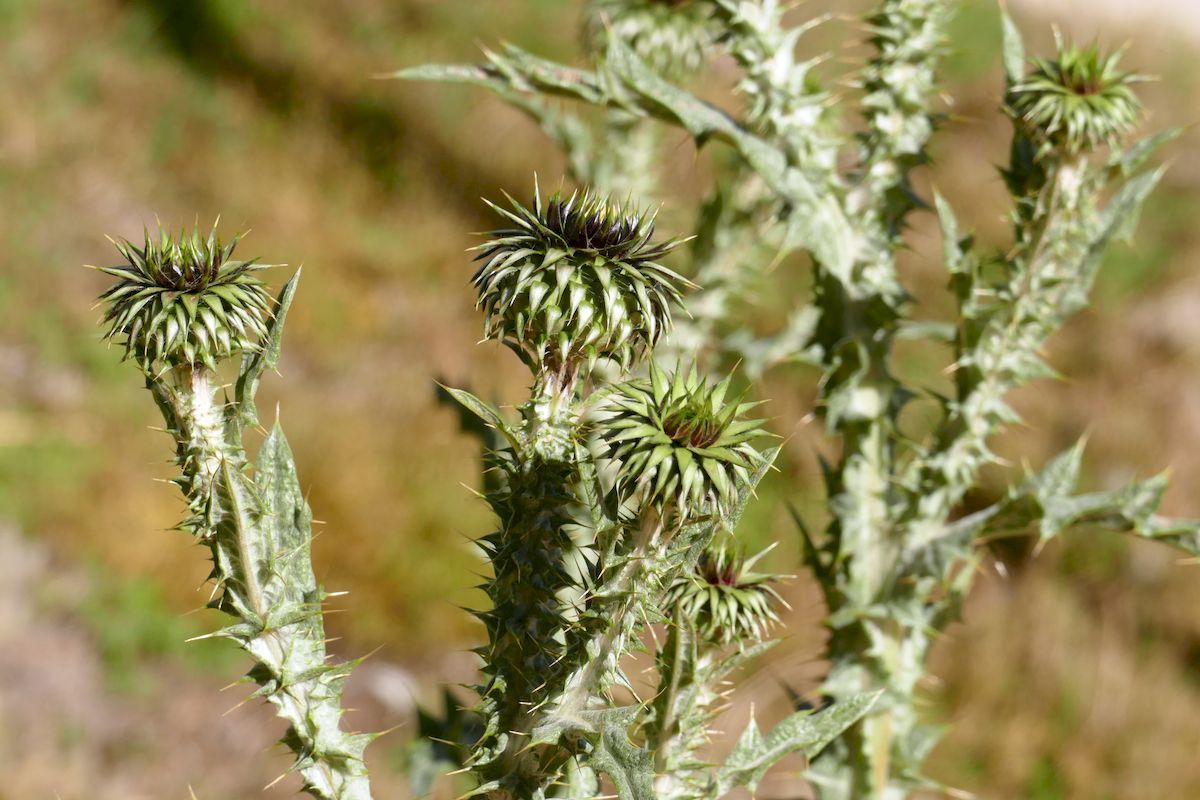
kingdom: Plantae
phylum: Tracheophyta
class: Magnoliopsida
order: Asterales
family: Asteraceae
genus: Onopordum
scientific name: Onopordum illyricum
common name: Illyrian thistle
